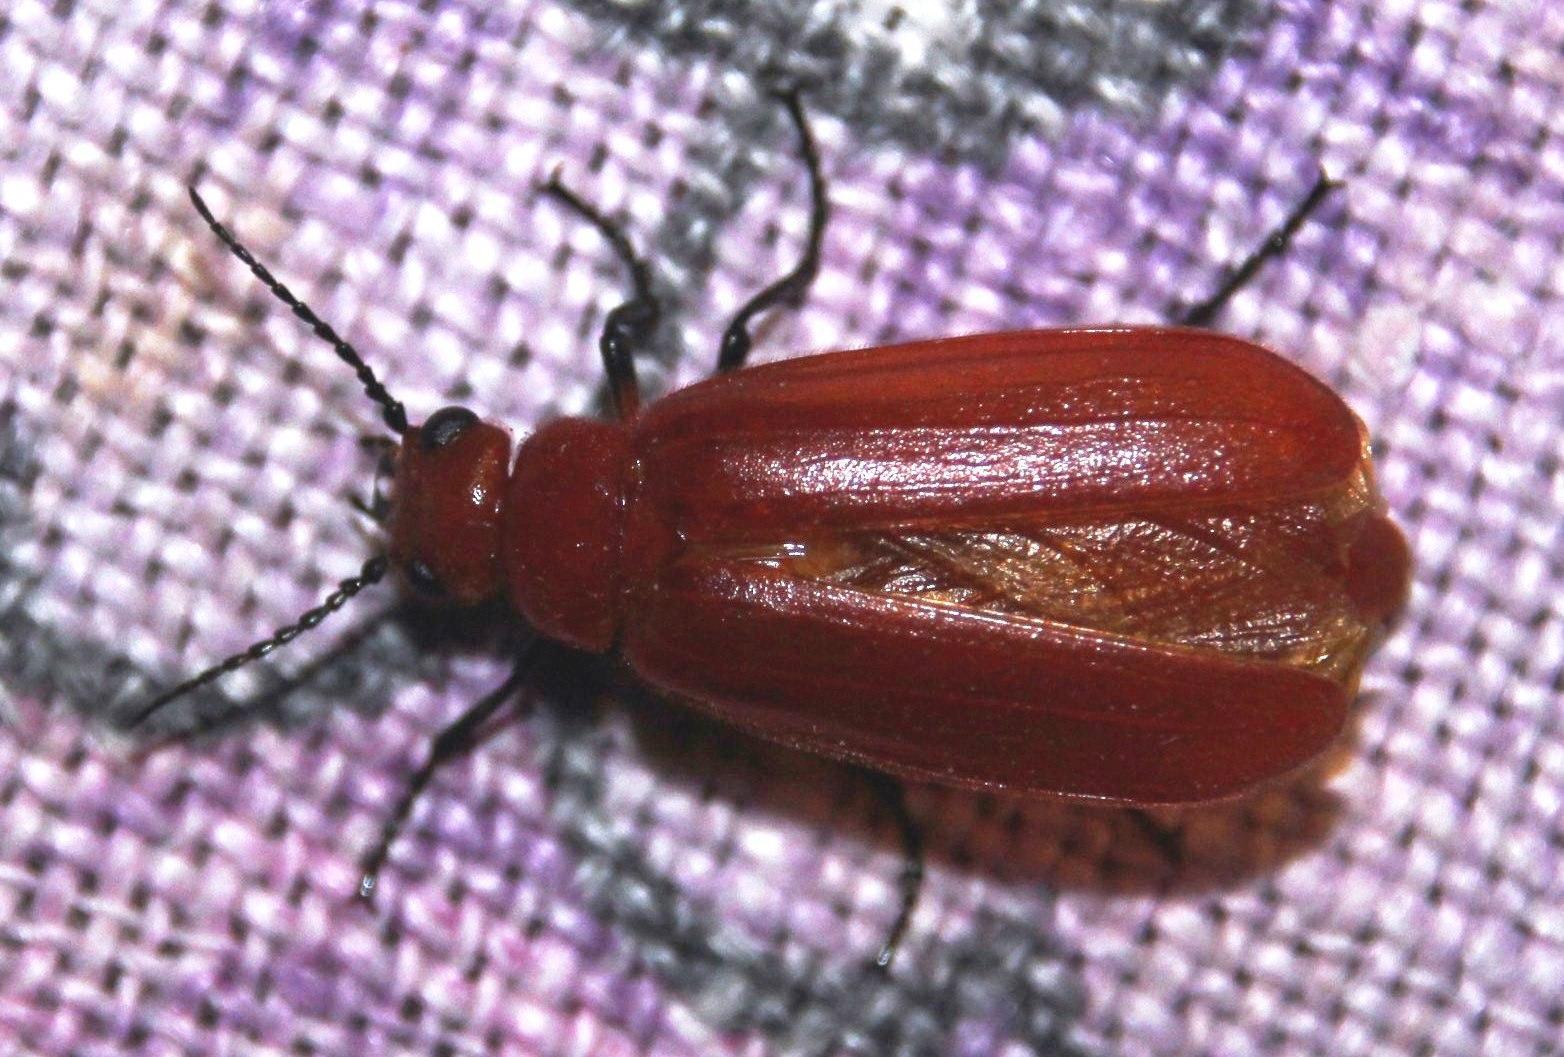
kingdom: Animalia
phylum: Arthropoda
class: Insecta
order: Coleoptera
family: Meloidae
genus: Synhoria
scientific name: Synhoria
